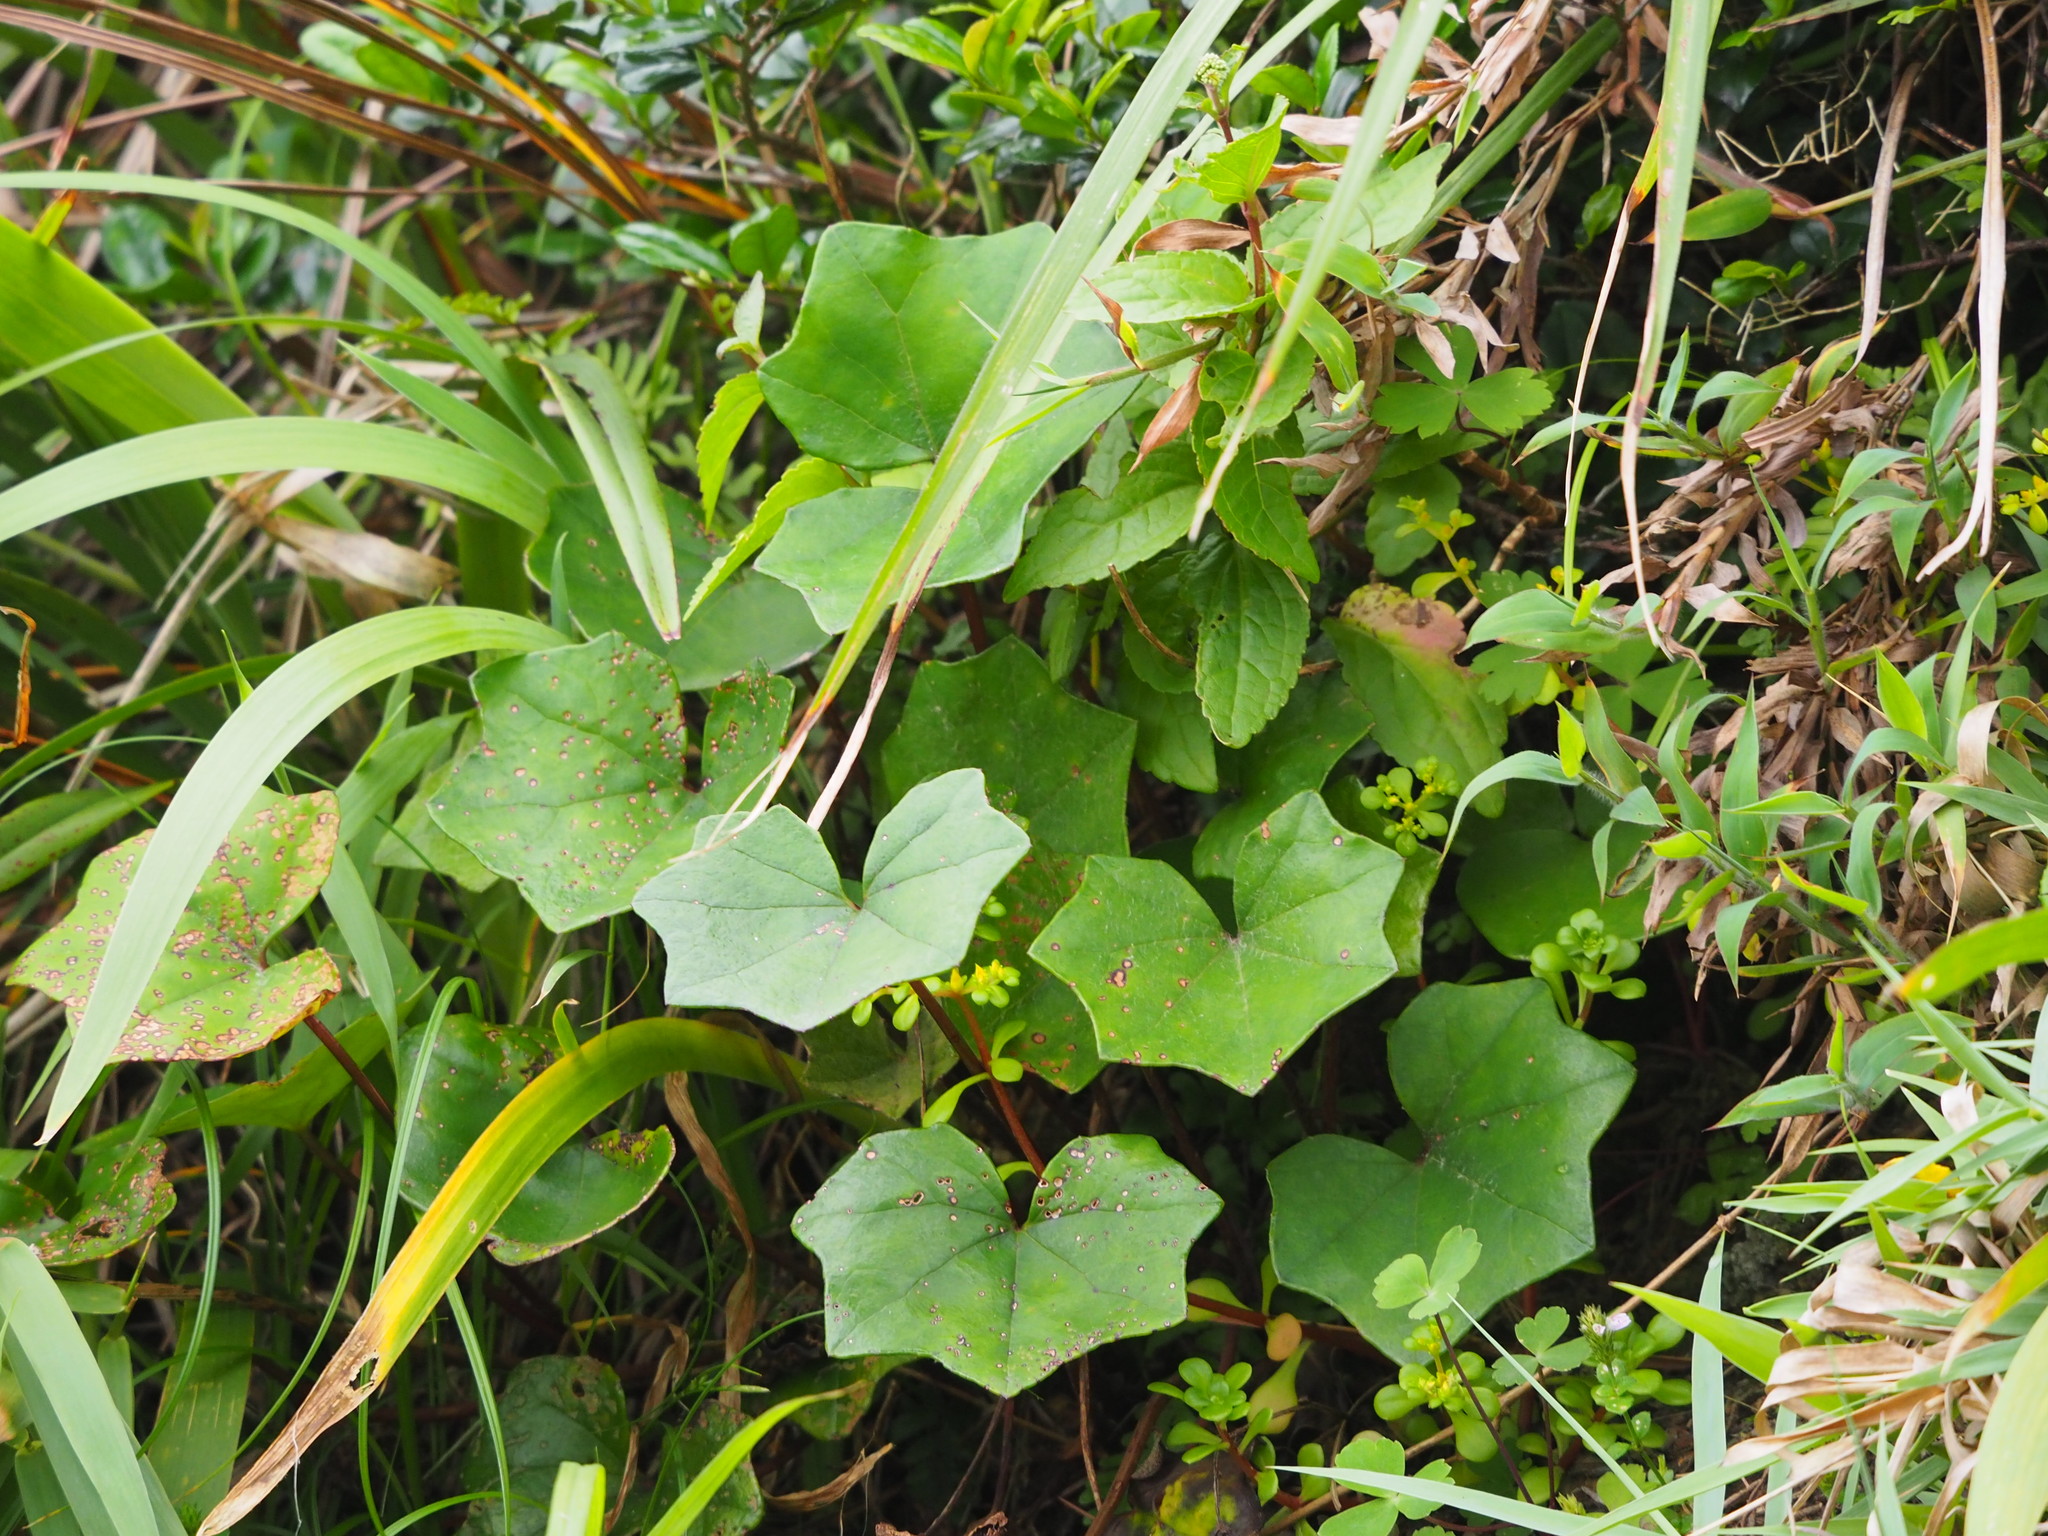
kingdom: Plantae
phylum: Tracheophyta
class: Magnoliopsida
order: Asterales
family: Asteraceae
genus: Farfugium
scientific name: Farfugium japonicum
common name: Leopardplant
